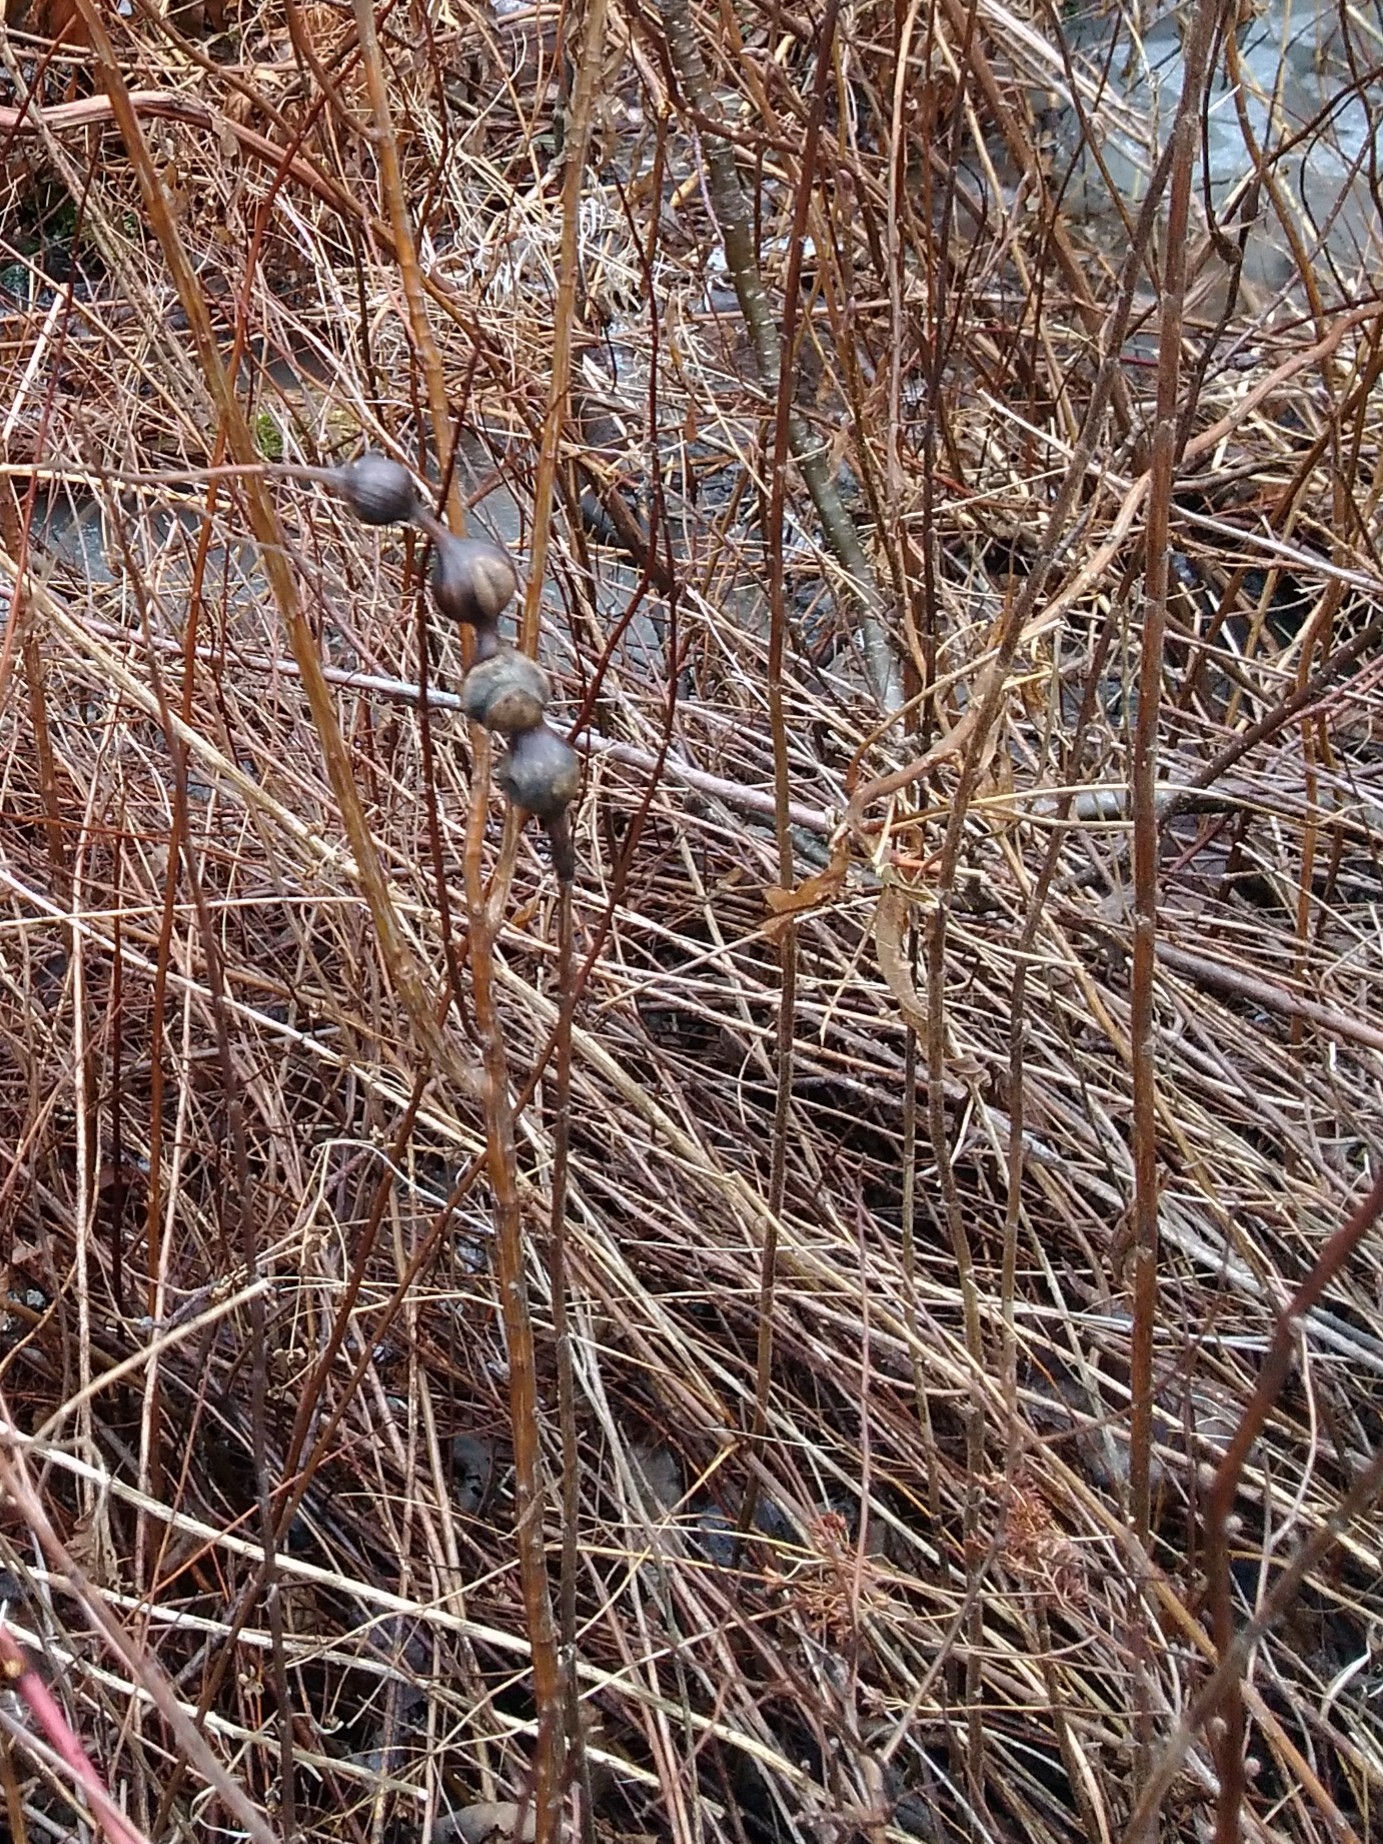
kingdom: Animalia
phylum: Arthropoda
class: Insecta
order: Diptera
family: Tephritidae
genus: Eurosta
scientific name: Eurosta solidaginis
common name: Goldenrod gall fly
